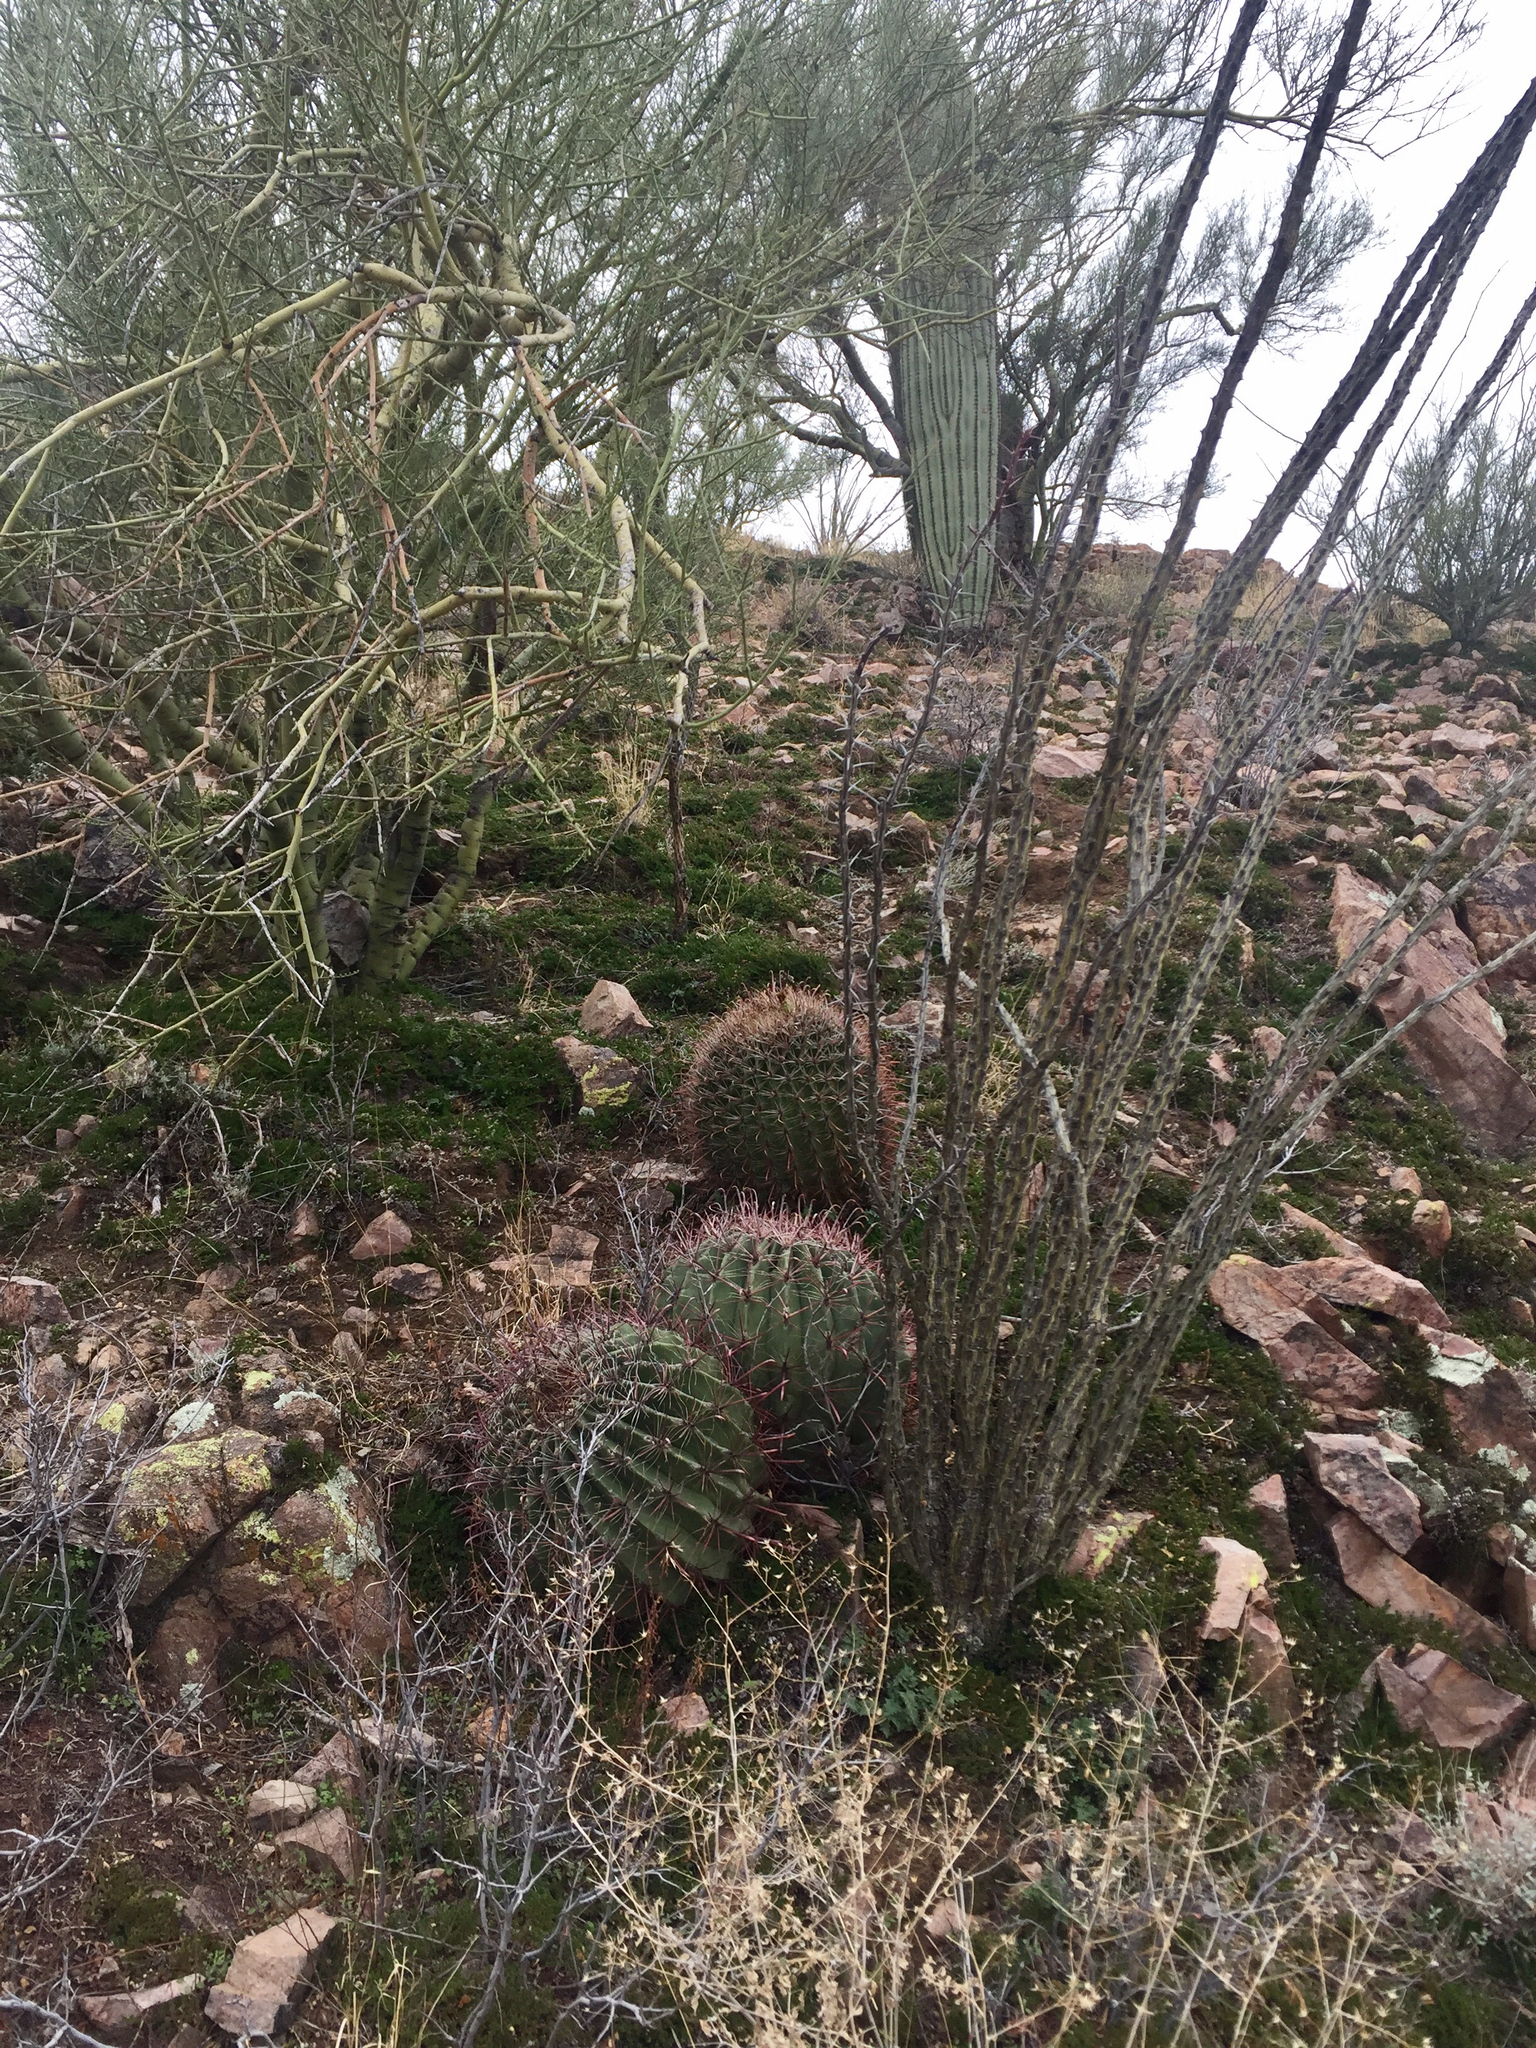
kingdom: Plantae
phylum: Tracheophyta
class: Magnoliopsida
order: Caryophyllales
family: Cactaceae
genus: Ferocactus
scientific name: Ferocactus wislizeni
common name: Candy barrel cactus
